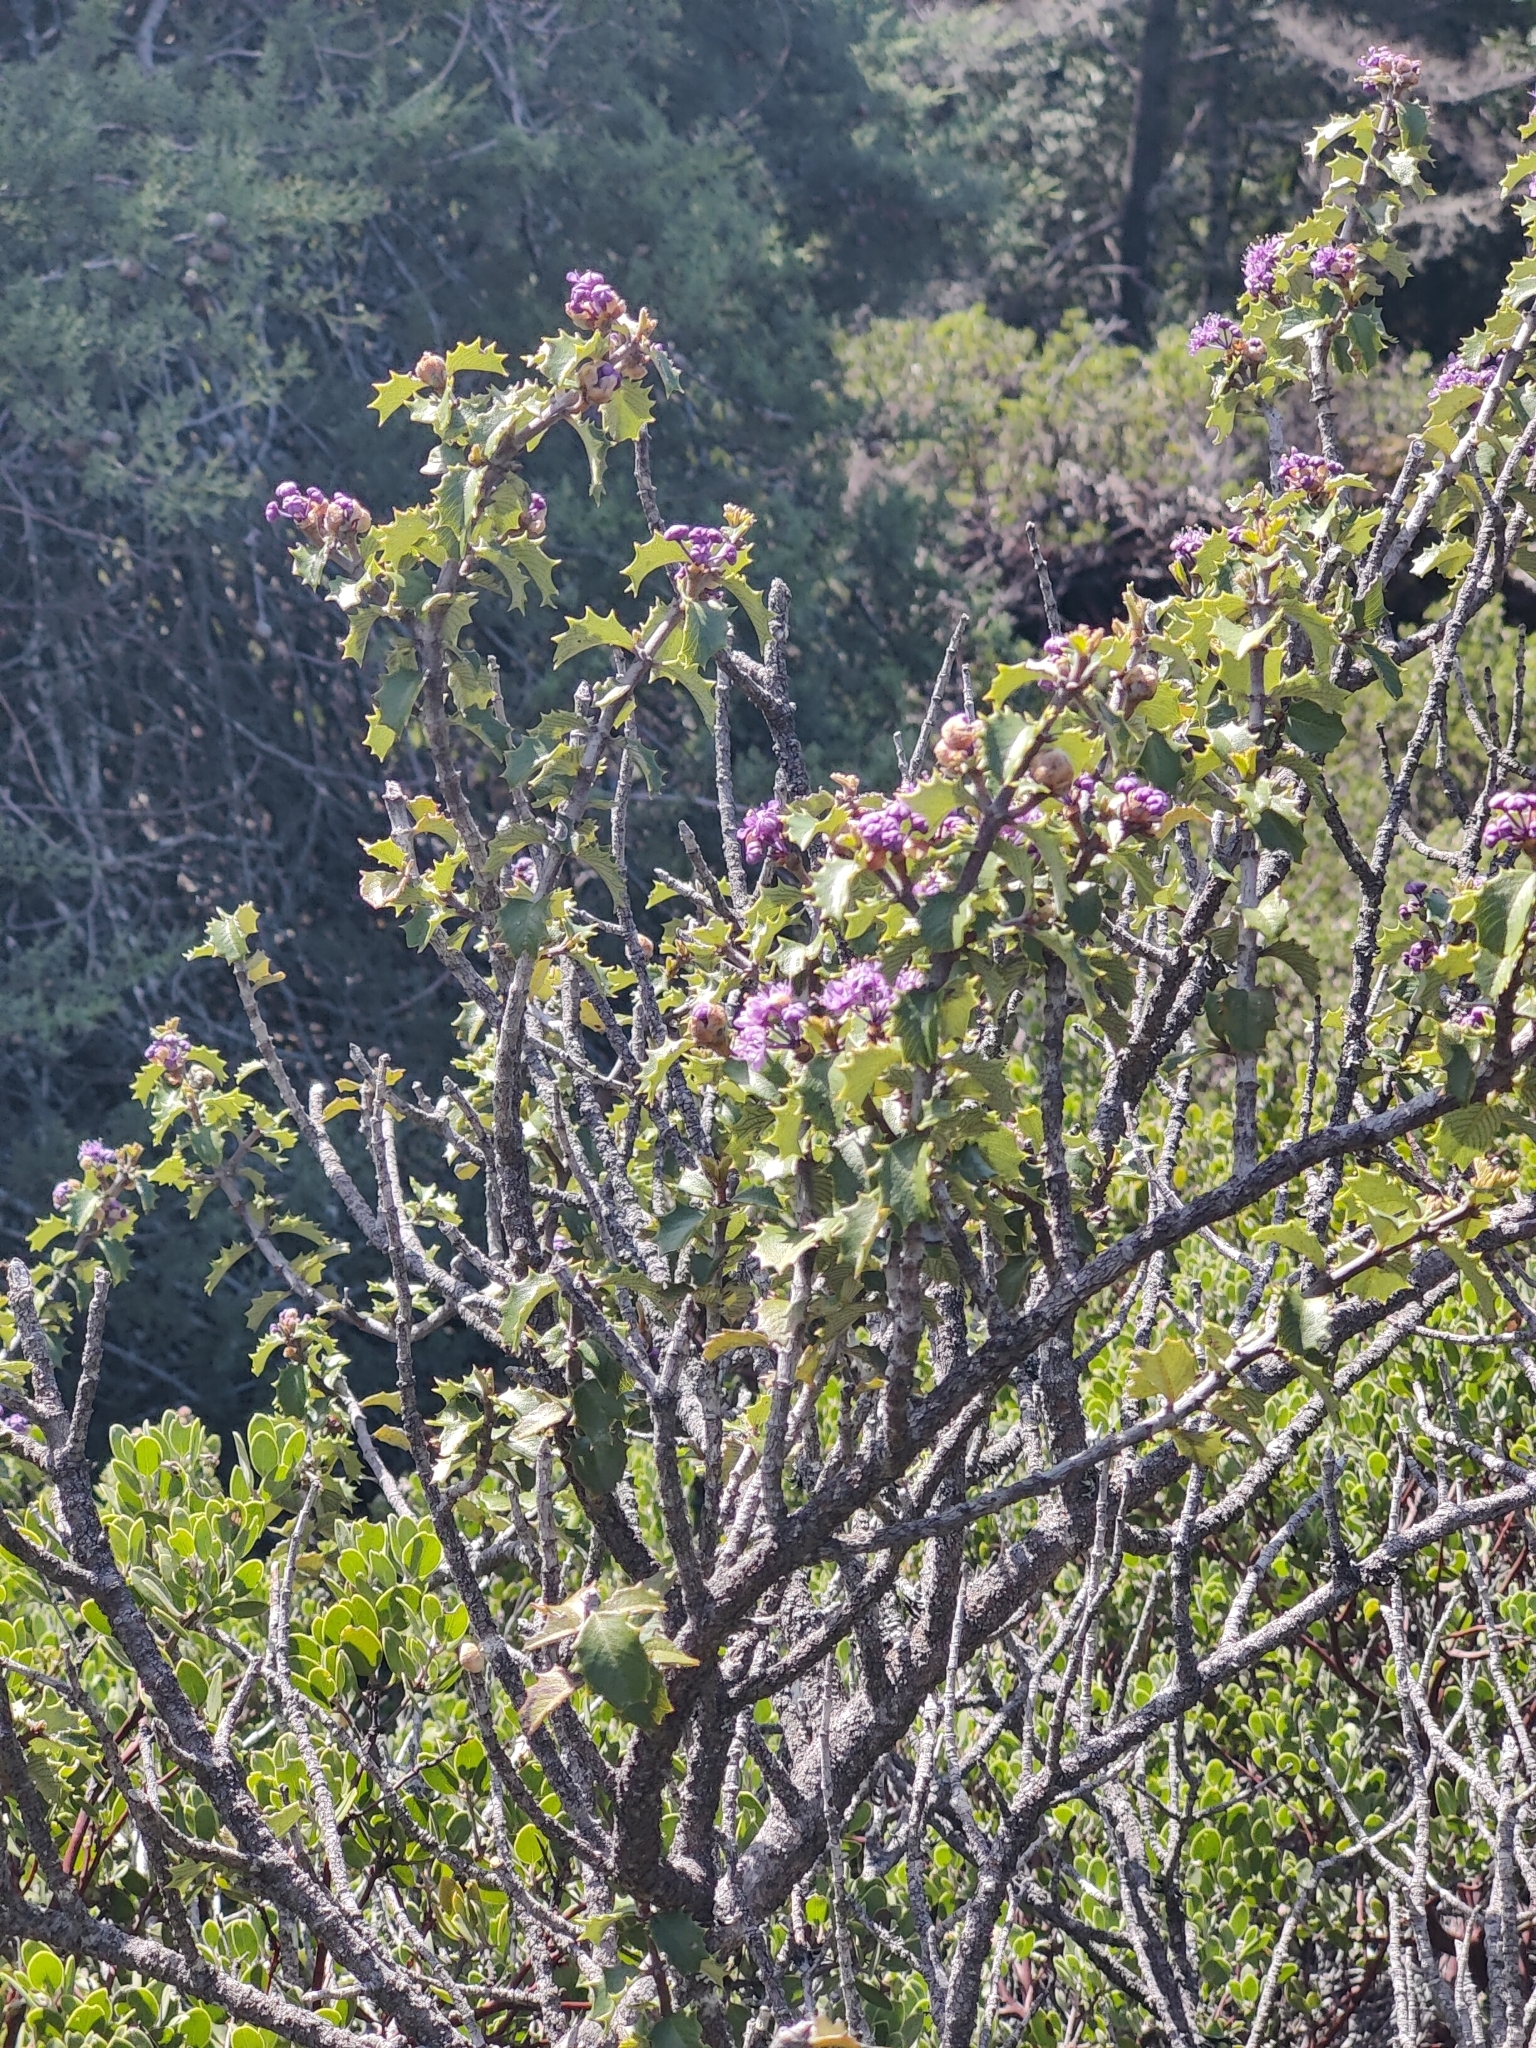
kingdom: Plantae
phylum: Tracheophyta
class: Magnoliopsida
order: Rosales
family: Rhamnaceae
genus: Ceanothus
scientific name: Ceanothus jepsonii
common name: Muskbrush
